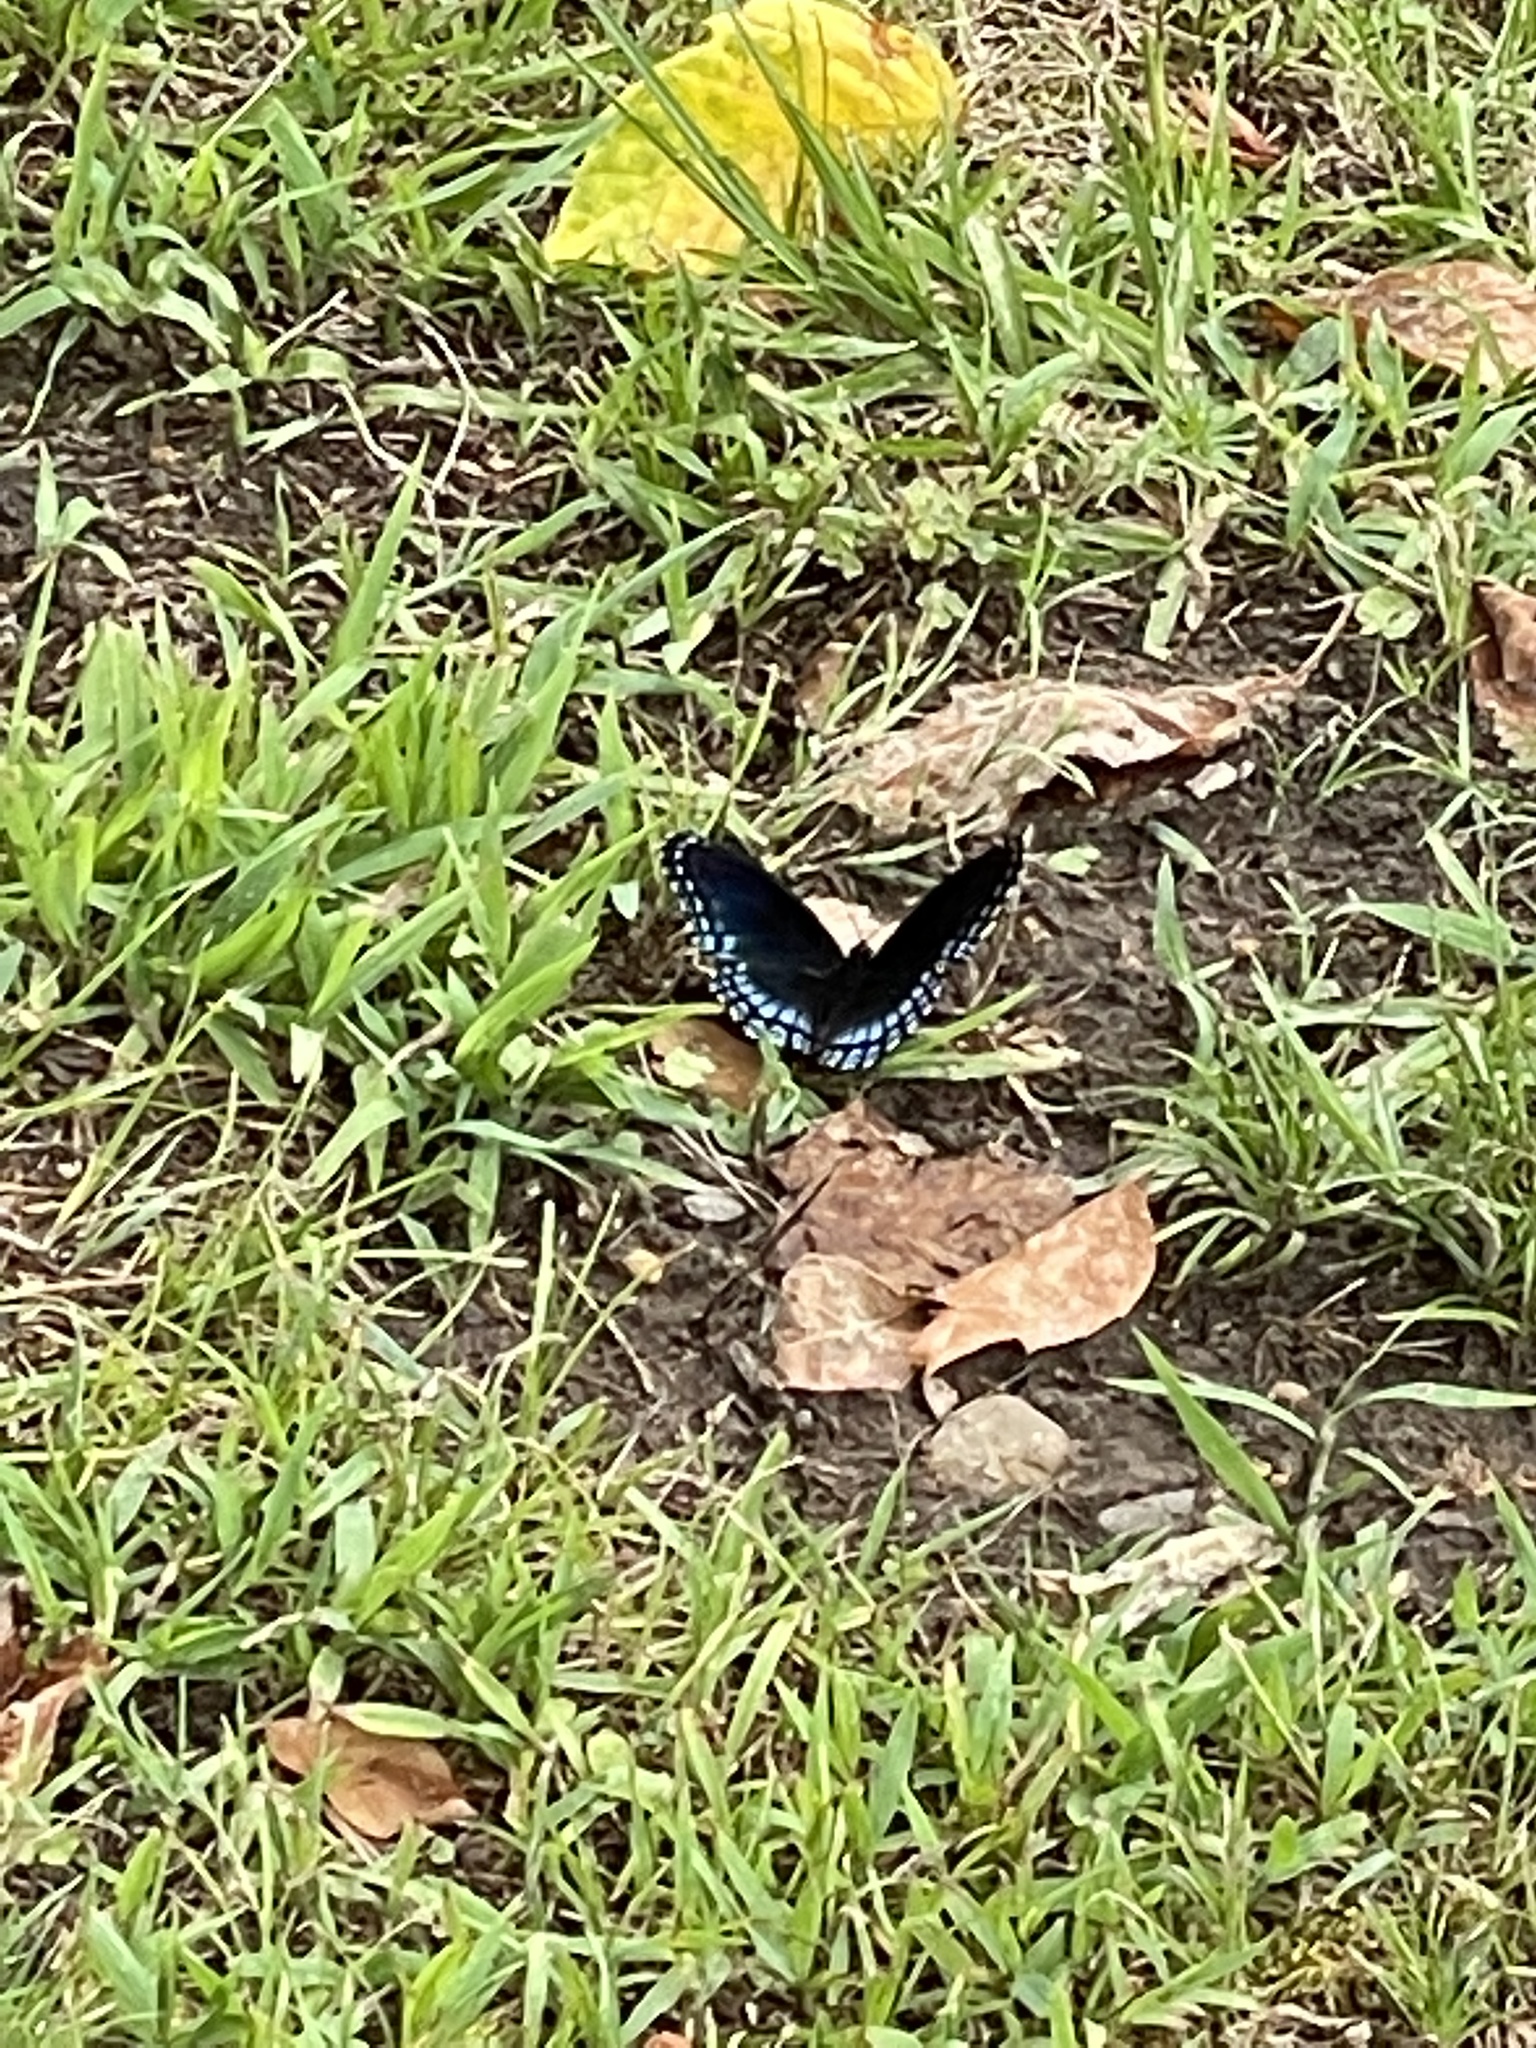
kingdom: Animalia
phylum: Arthropoda
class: Insecta
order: Lepidoptera
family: Nymphalidae
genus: Limenitis
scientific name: Limenitis astyanax
